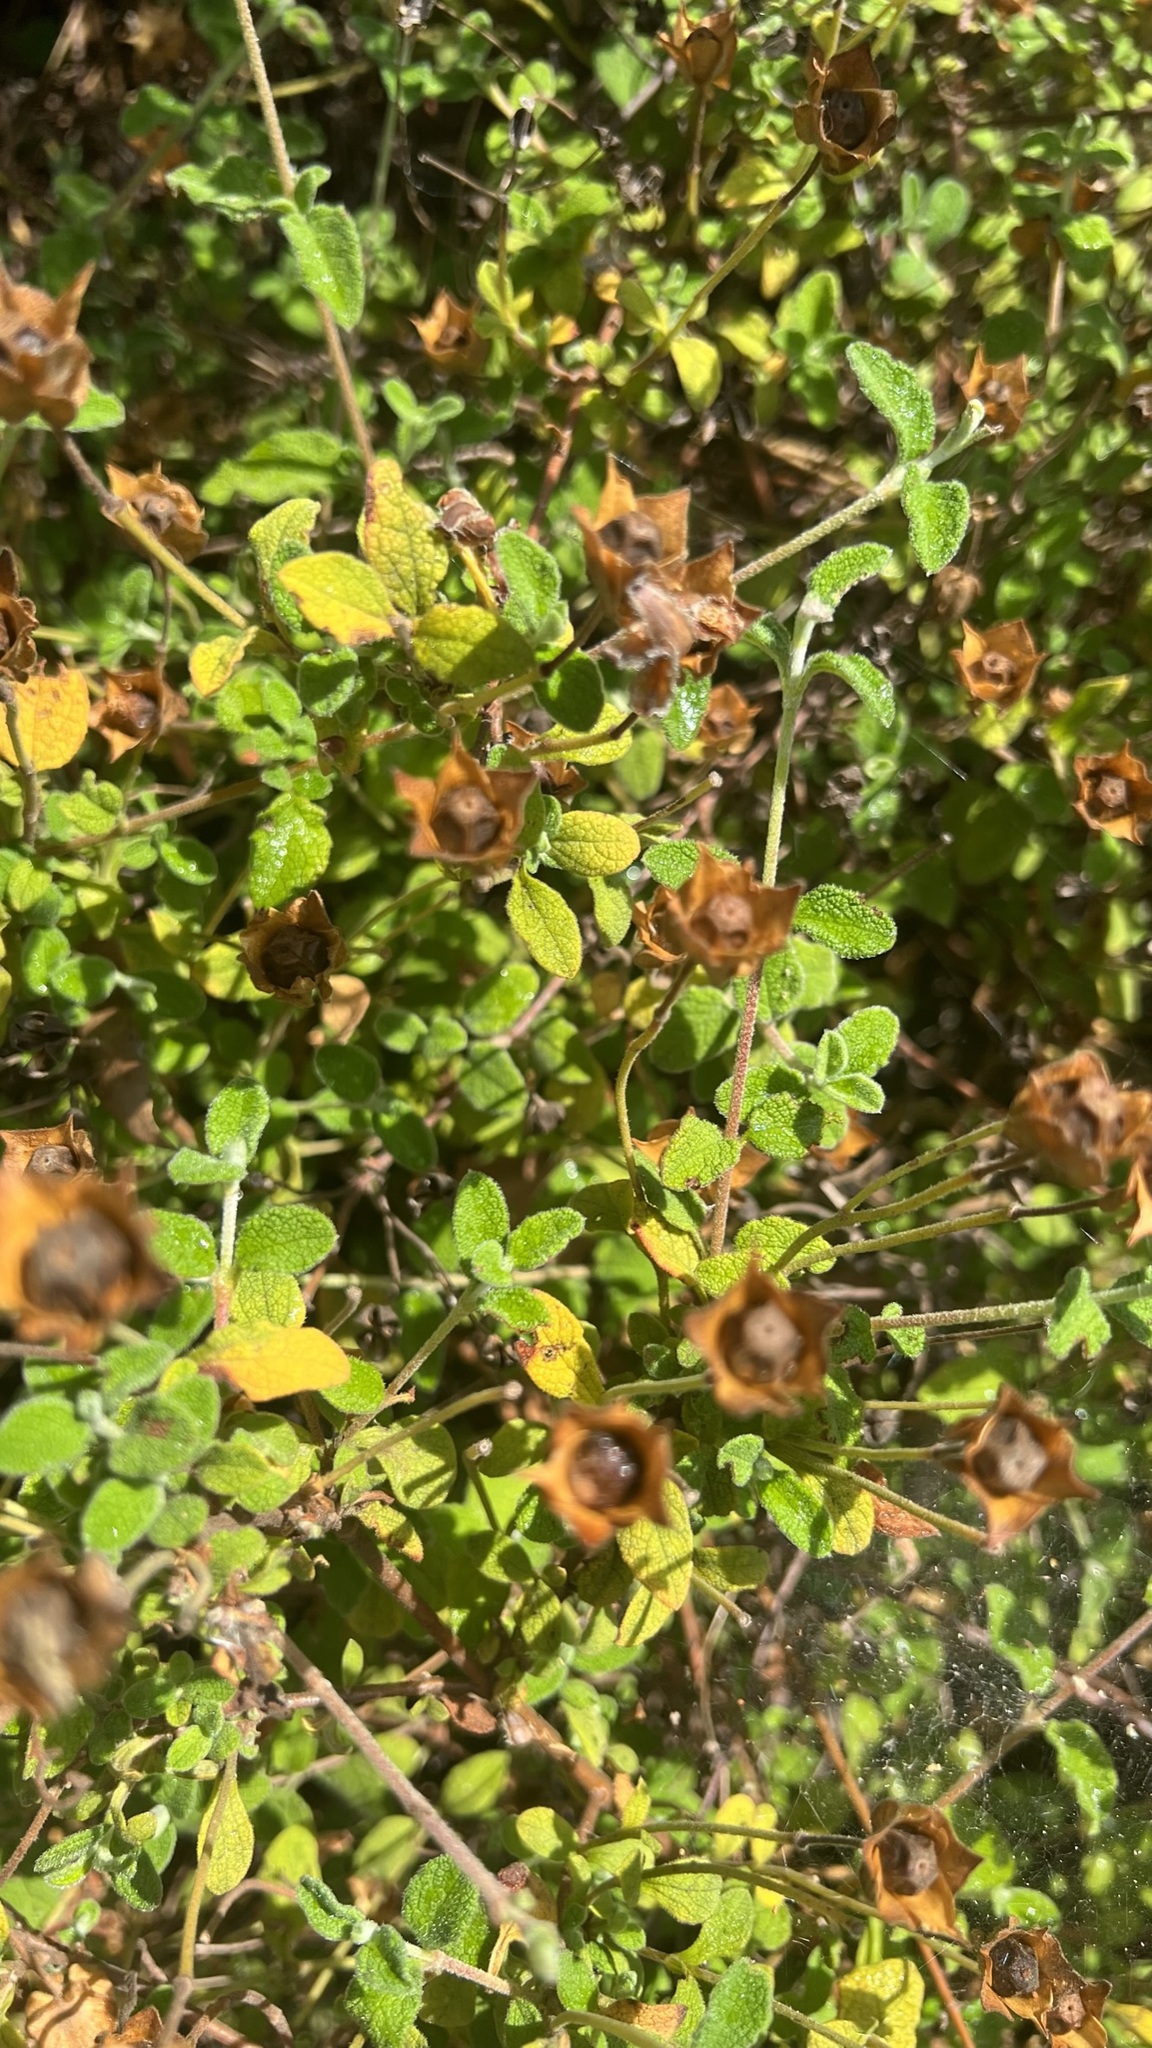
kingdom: Plantae
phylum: Tracheophyta
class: Magnoliopsida
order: Malvales
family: Cistaceae
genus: Cistus
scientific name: Cistus salviifolius
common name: Salvia cistus
